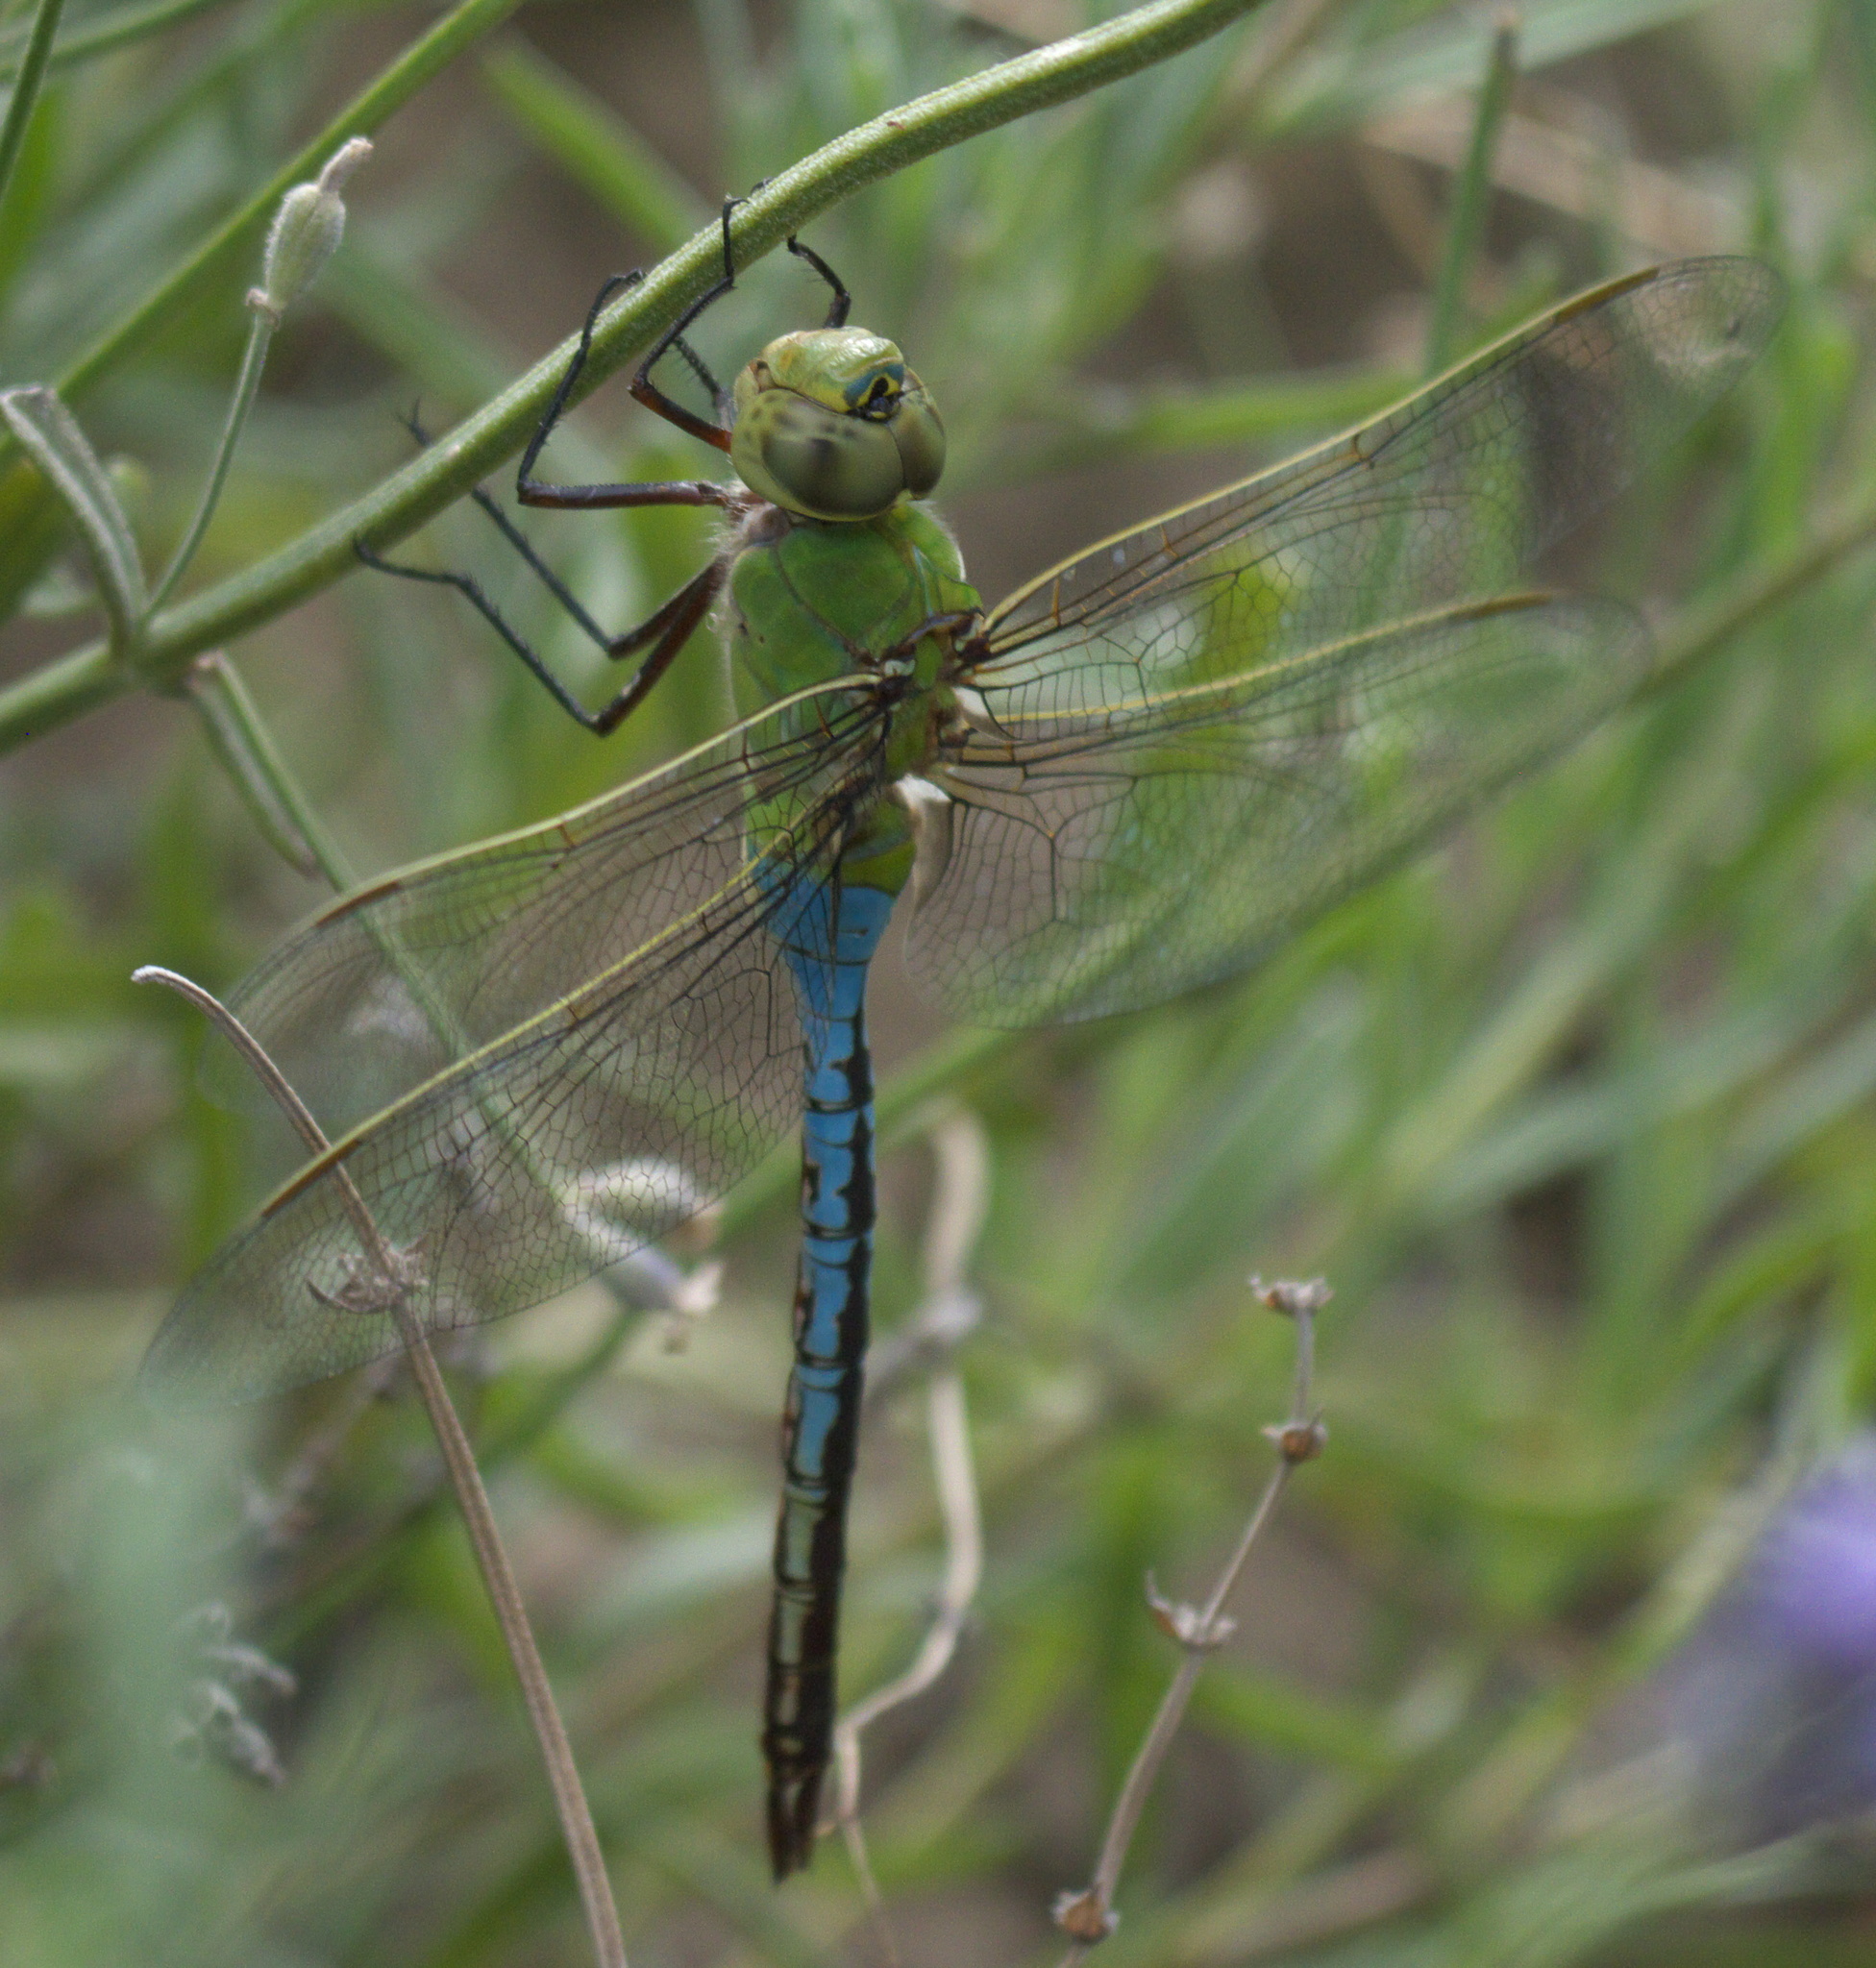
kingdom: Animalia
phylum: Arthropoda
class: Insecta
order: Odonata
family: Aeshnidae
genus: Anax
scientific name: Anax junius
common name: Common green darner
